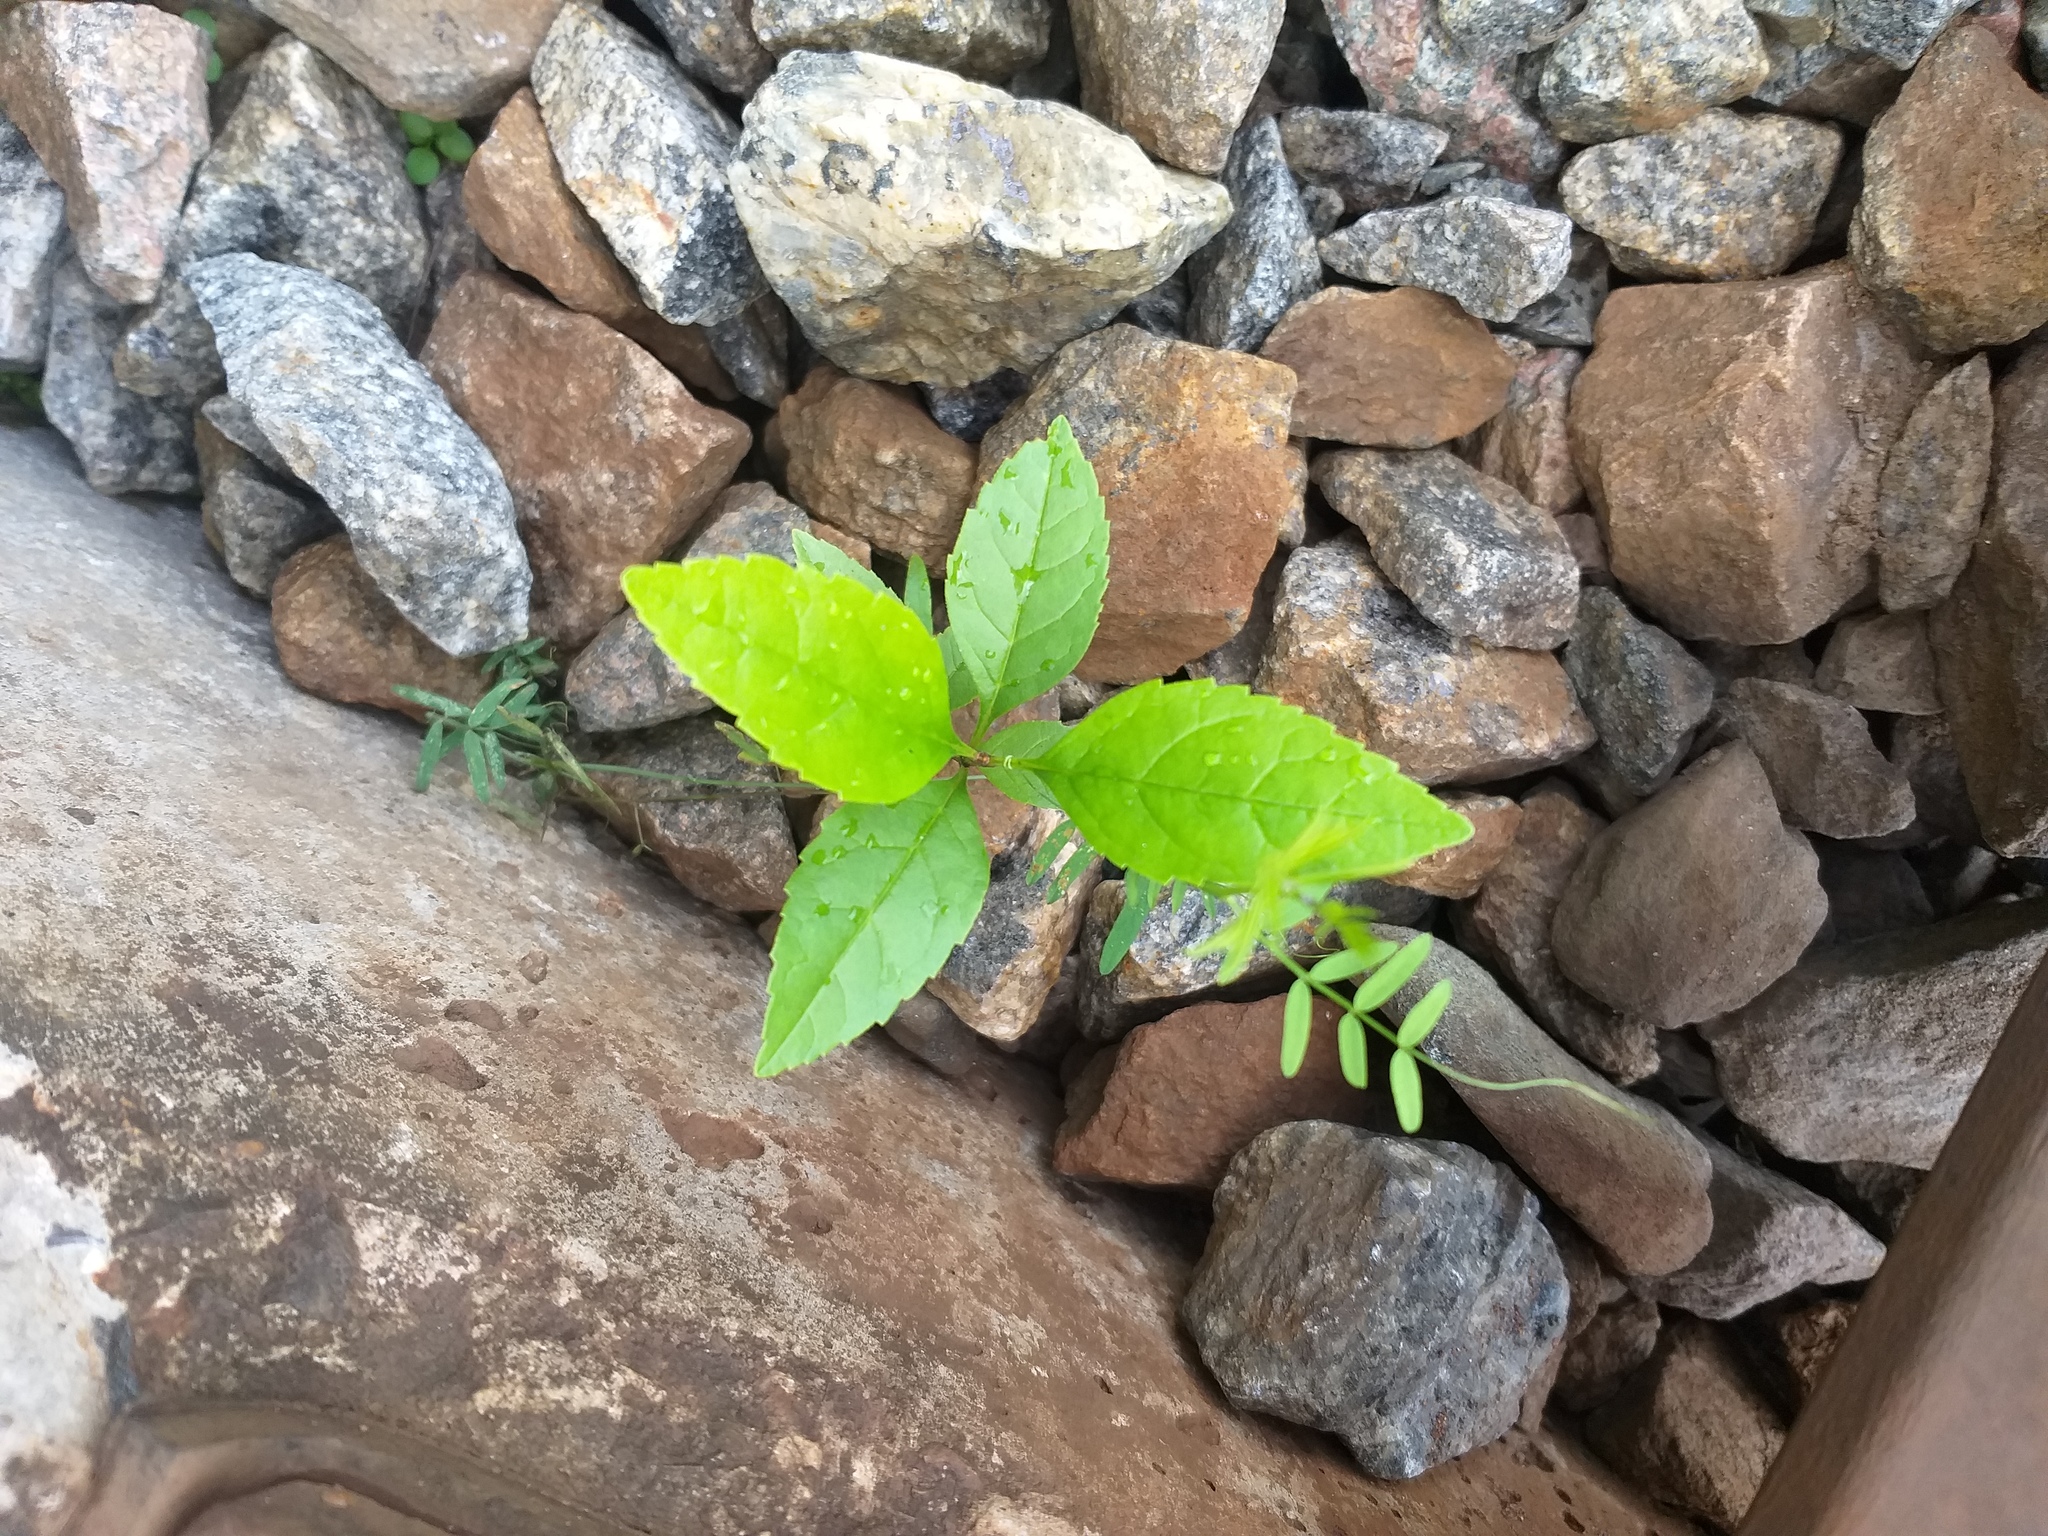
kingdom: Plantae
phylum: Tracheophyta
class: Magnoliopsida
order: Lamiales
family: Oleaceae
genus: Fraxinus
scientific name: Fraxinus pennsylvanica
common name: Green ash
